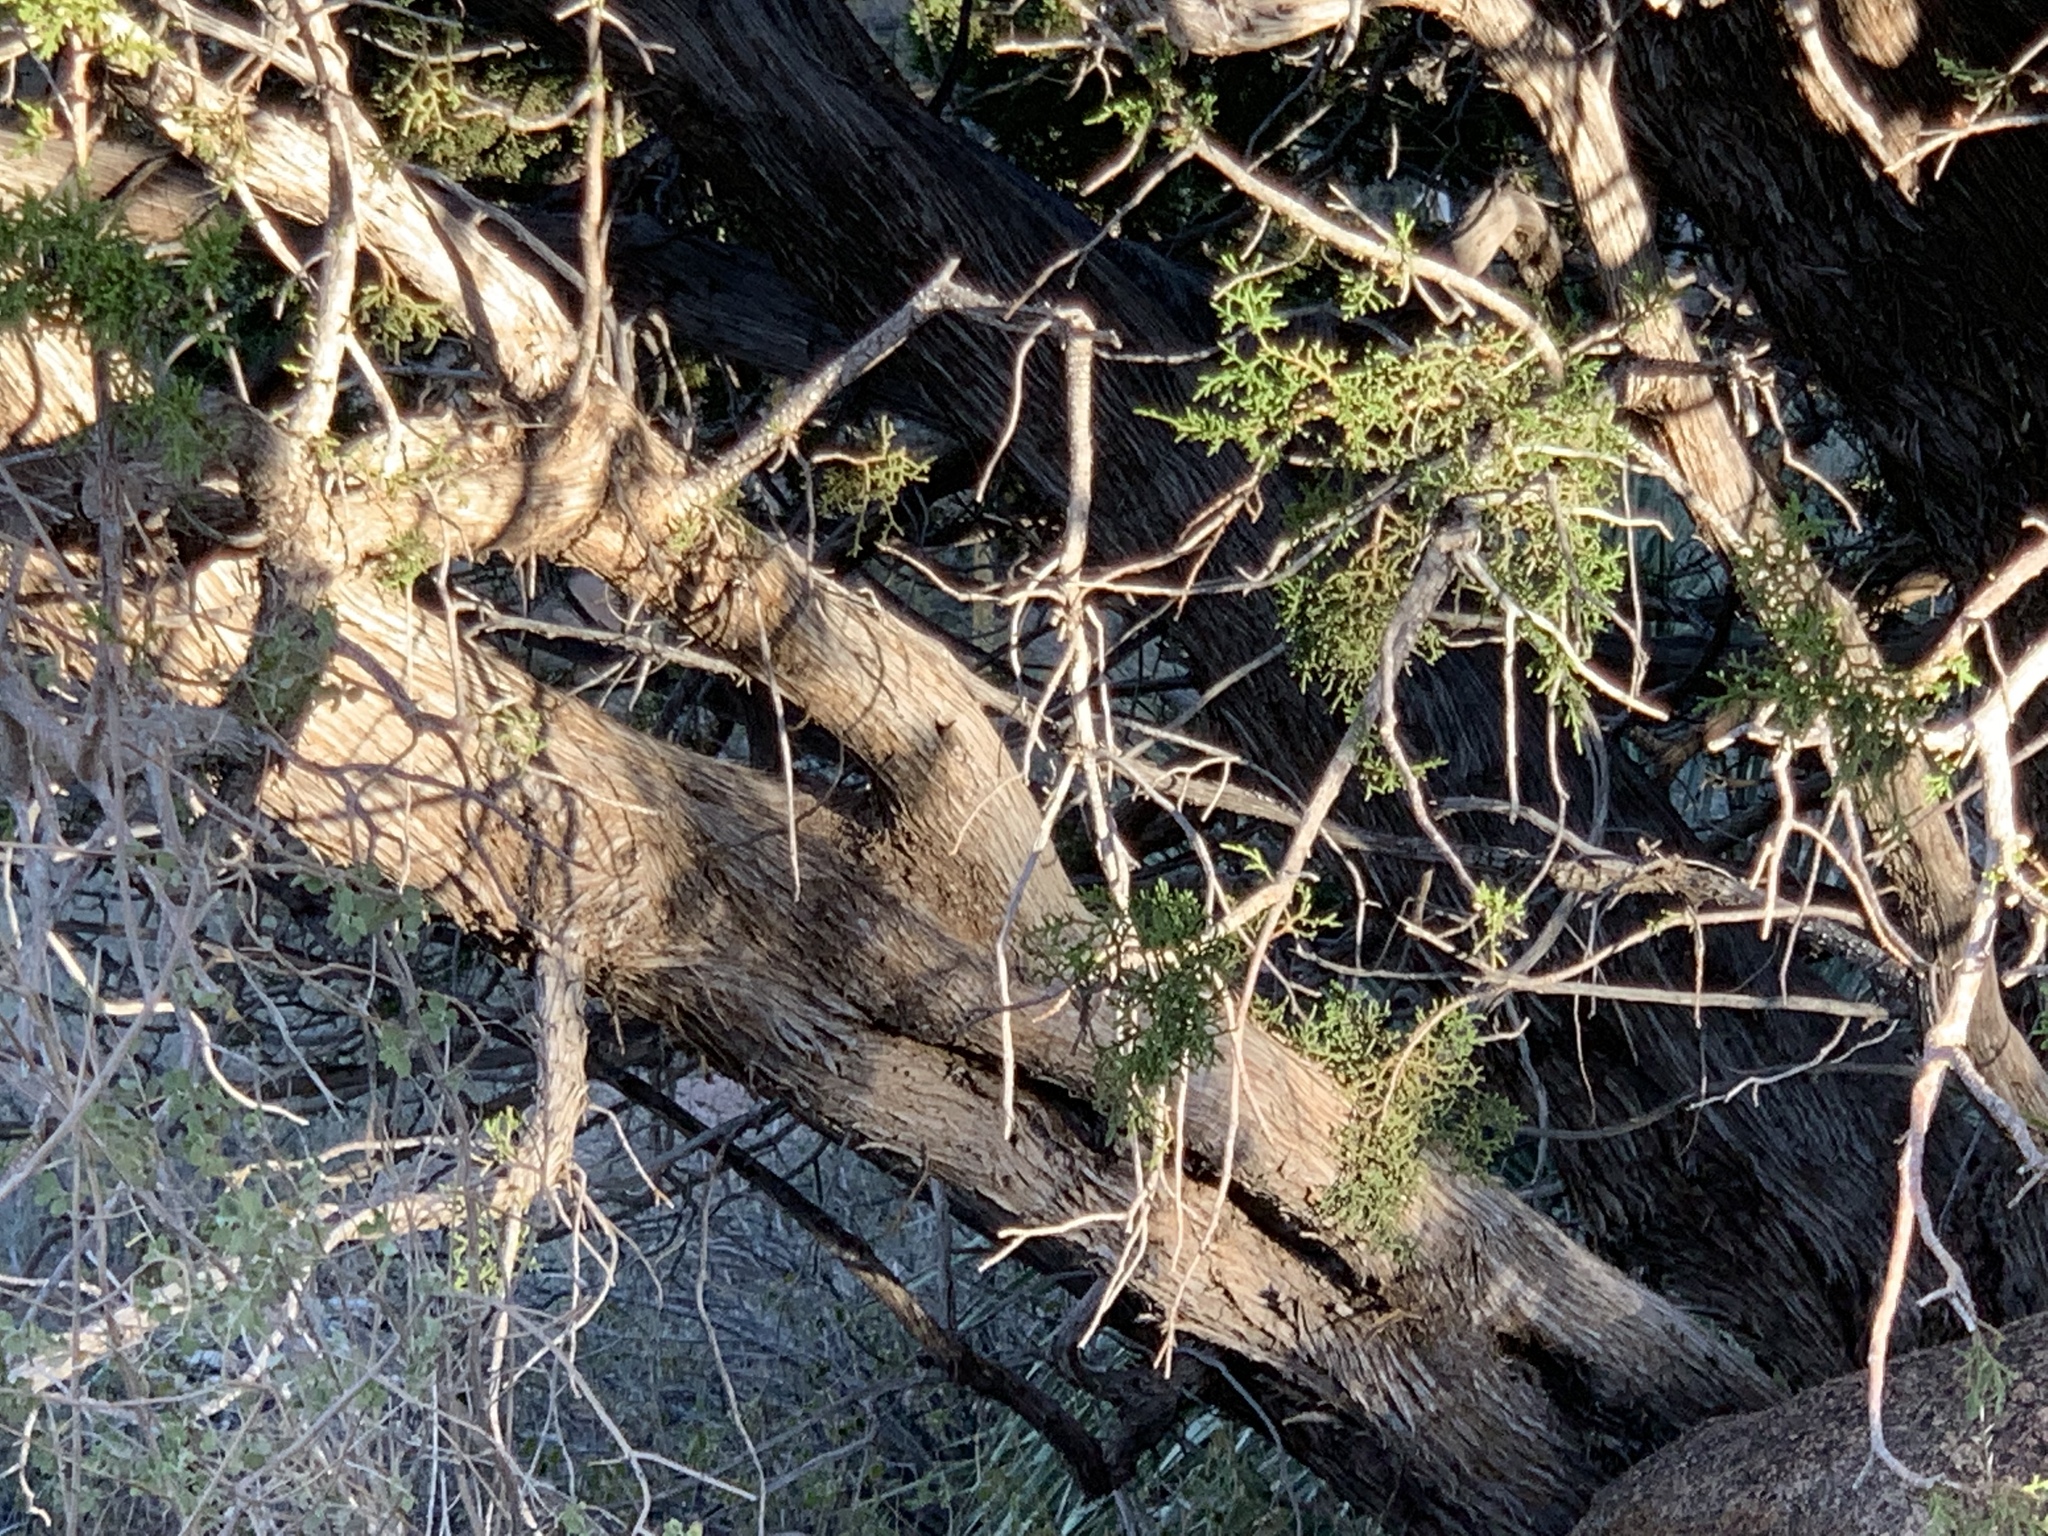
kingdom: Plantae
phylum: Tracheophyta
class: Pinopsida
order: Pinales
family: Cupressaceae
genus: Juniperus
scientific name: Juniperus monosperma
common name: One-seed juniper
